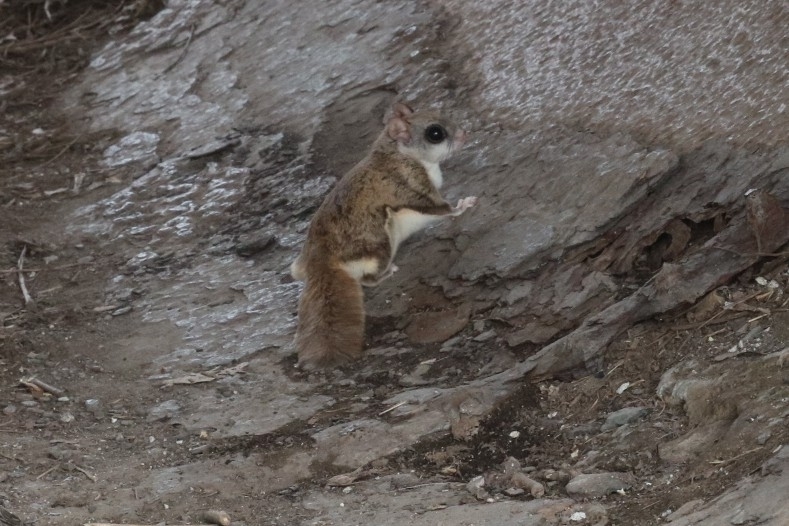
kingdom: Animalia
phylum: Chordata
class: Mammalia
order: Rodentia
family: Sciuridae
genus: Glaucomys
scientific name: Glaucomys sabrinus
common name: Northern flying squirrel
